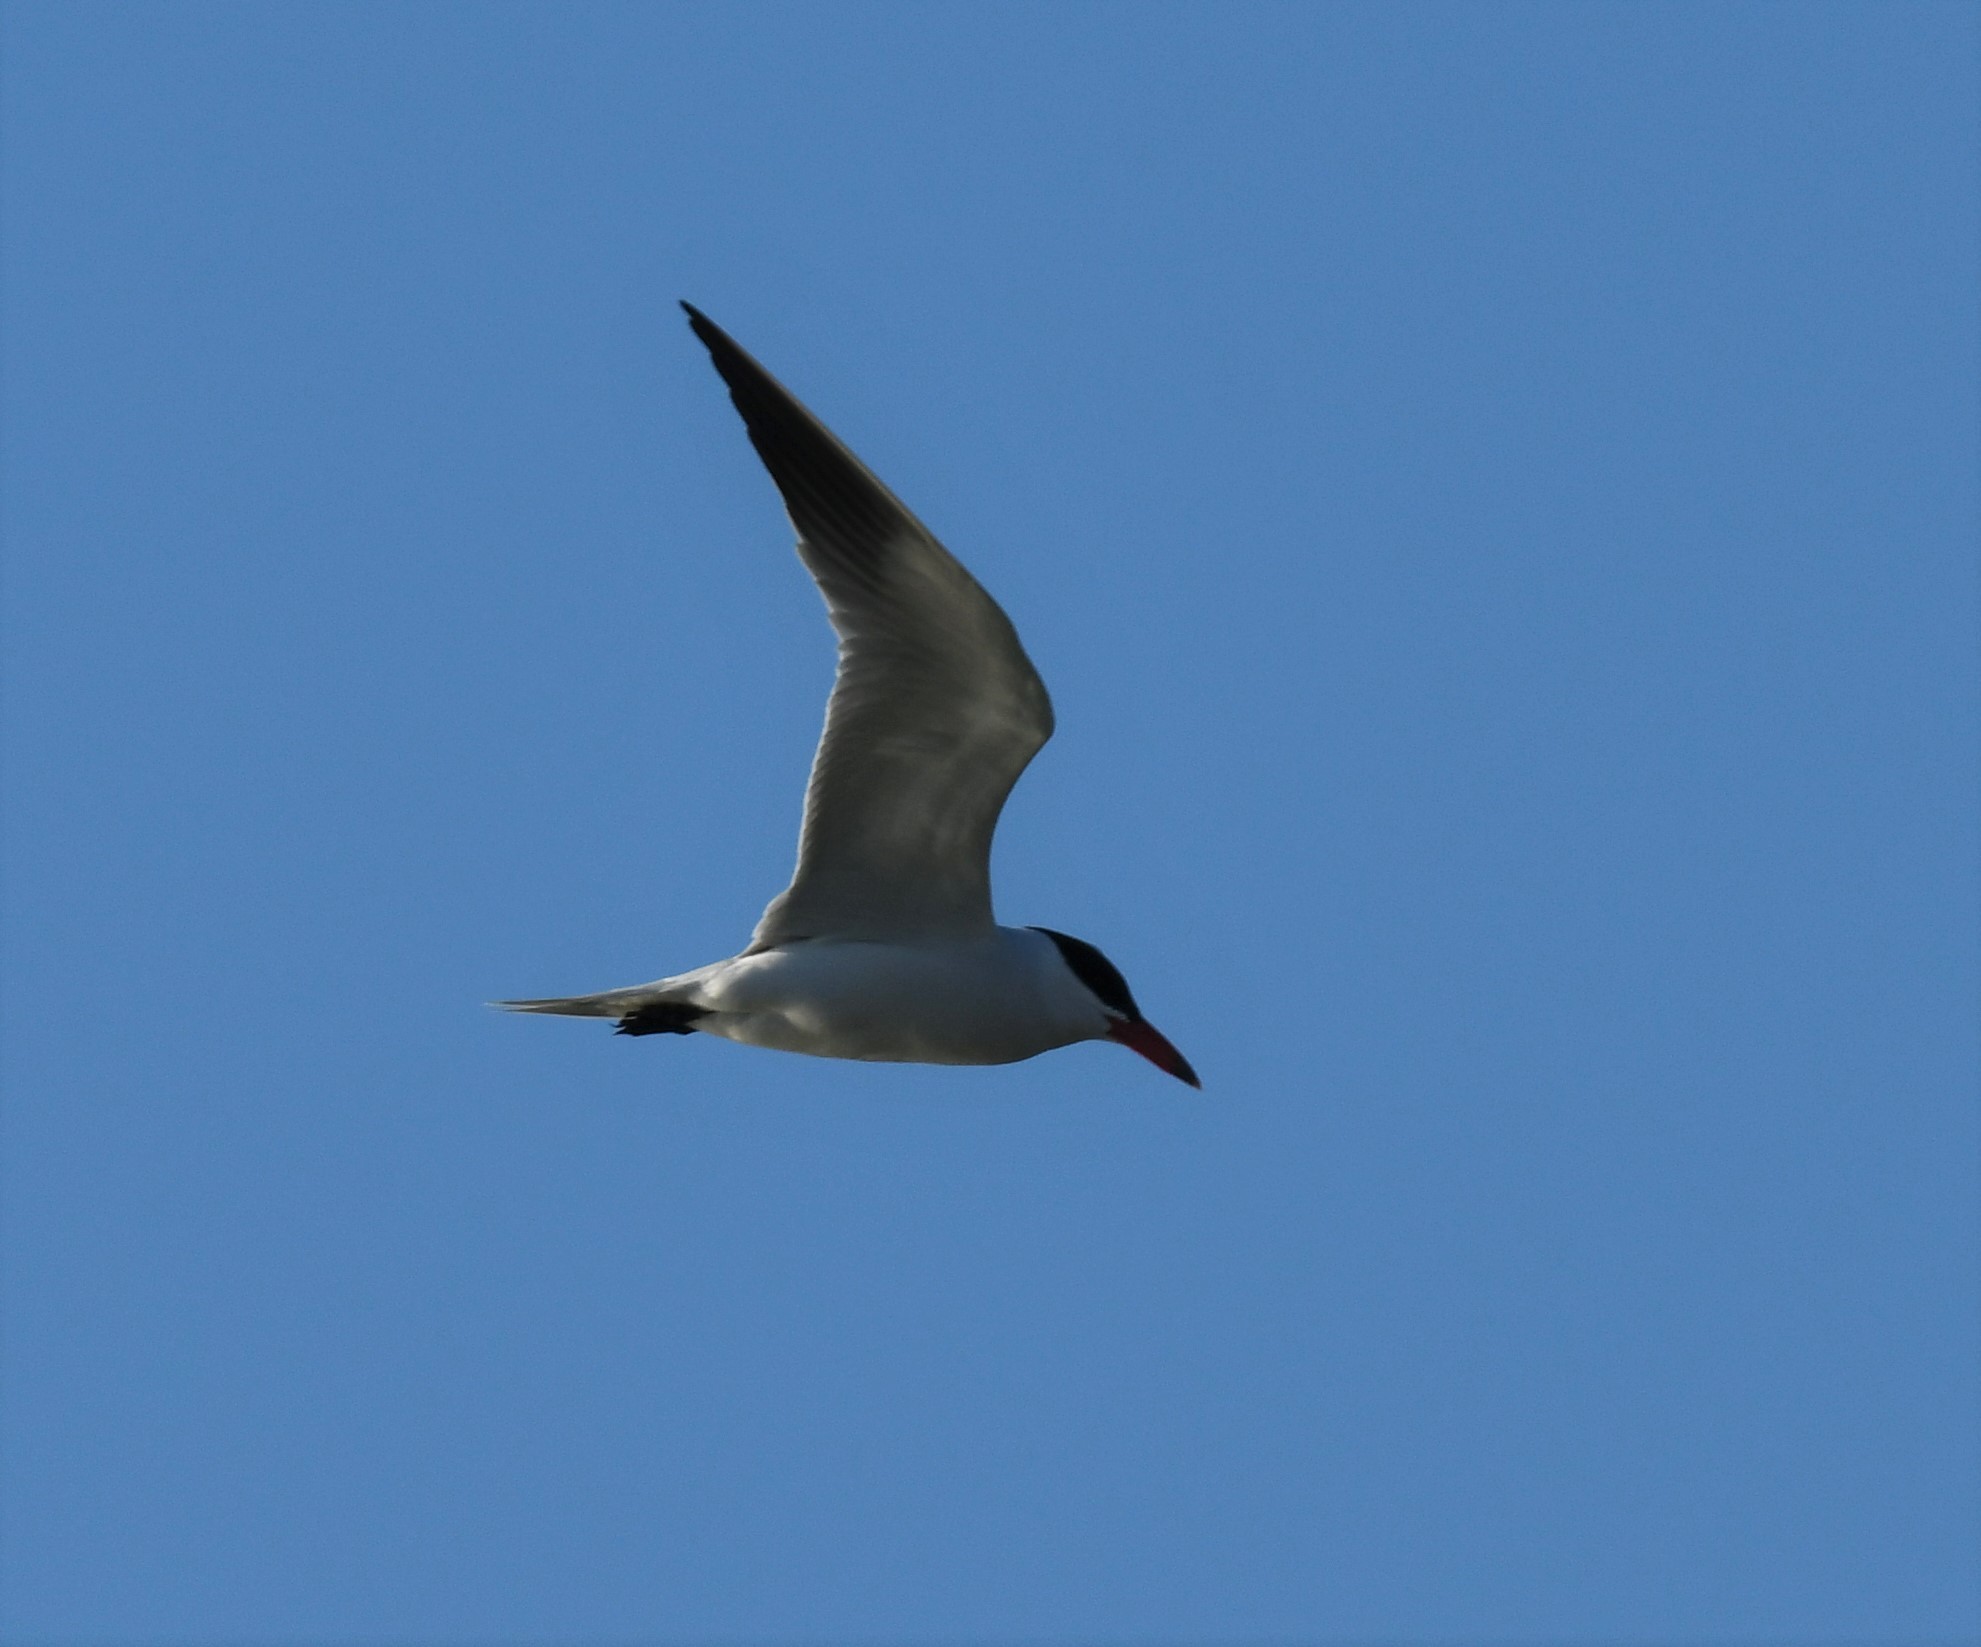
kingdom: Animalia
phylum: Chordata
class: Aves
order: Charadriiformes
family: Laridae
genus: Hydroprogne
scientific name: Hydroprogne caspia
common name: Caspian tern
